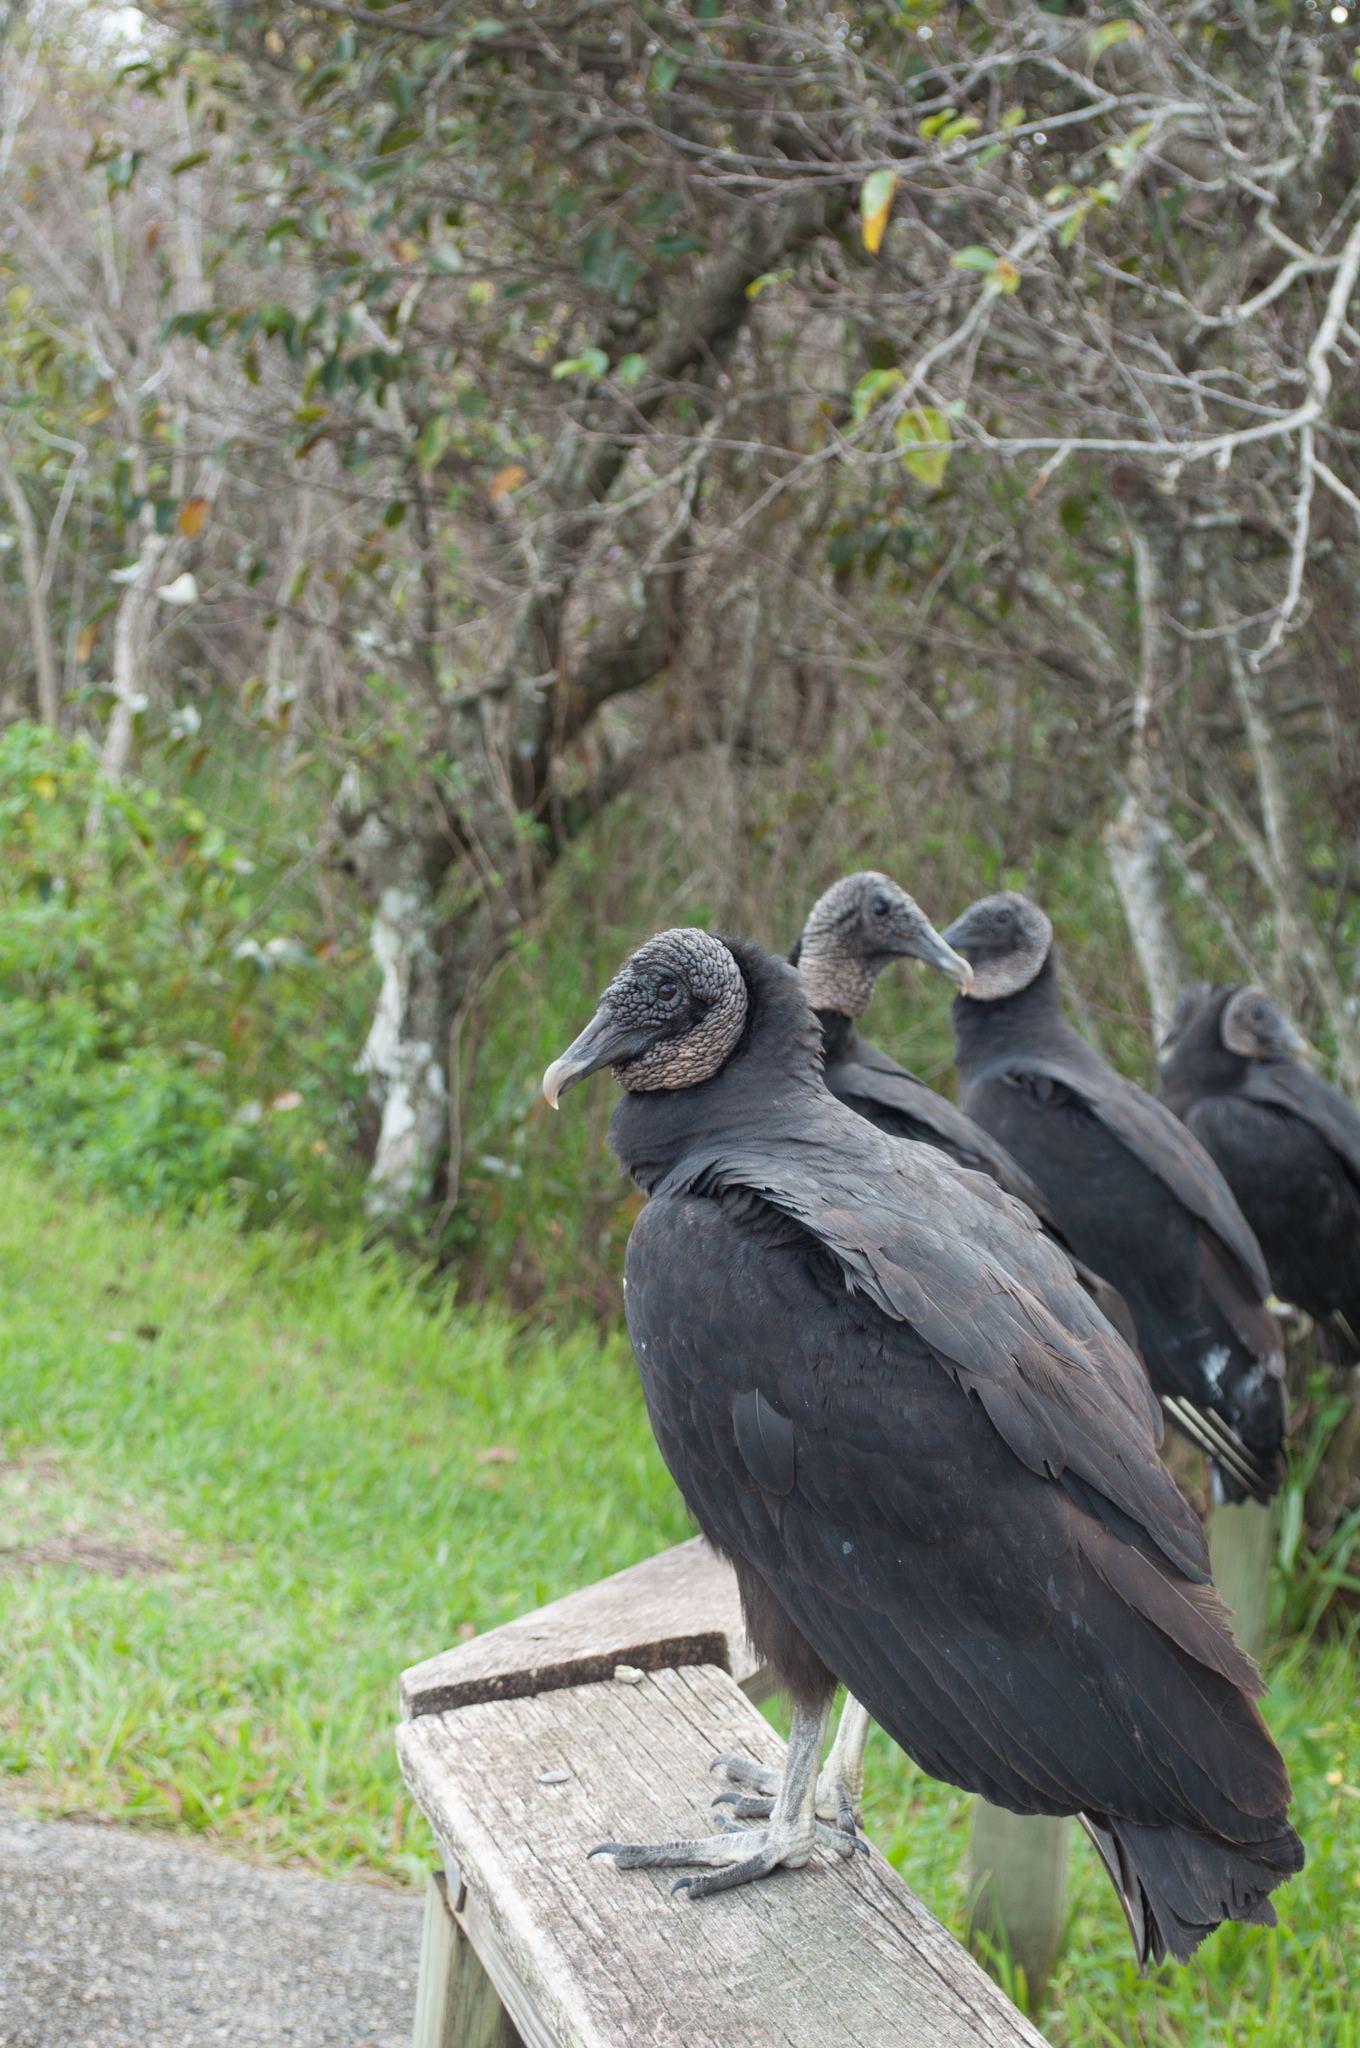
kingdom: Animalia
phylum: Chordata
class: Aves
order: Accipitriformes
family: Cathartidae
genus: Coragyps
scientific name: Coragyps atratus
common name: Black vulture
